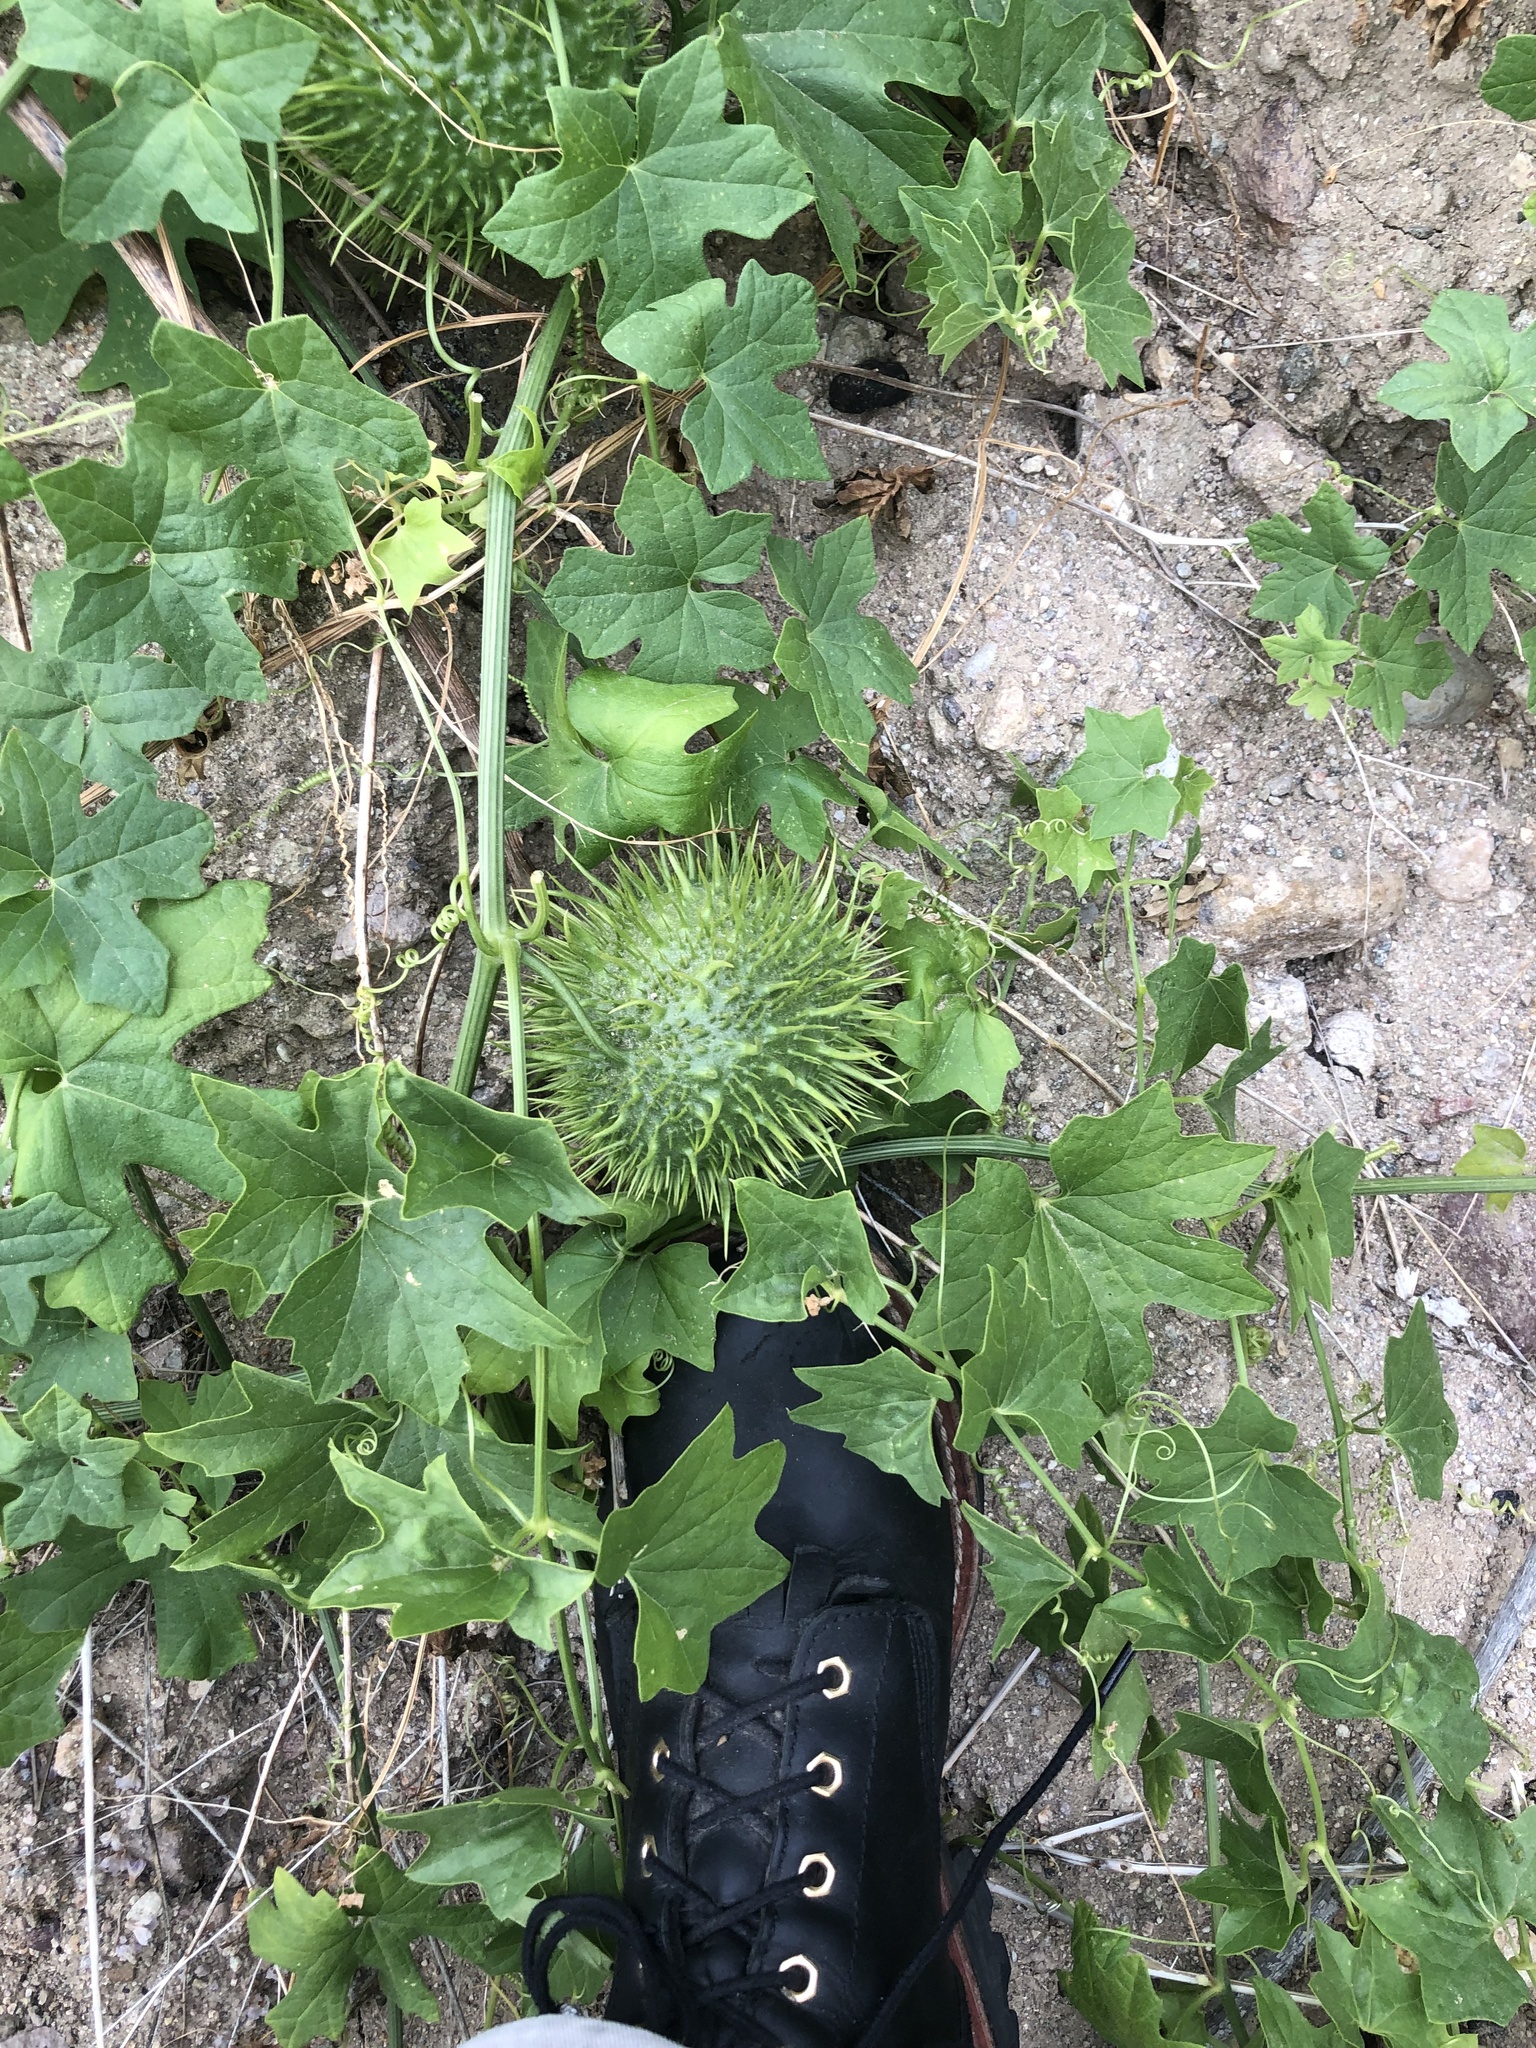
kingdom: Plantae
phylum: Tracheophyta
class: Magnoliopsida
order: Cucurbitales
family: Cucurbitaceae
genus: Marah
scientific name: Marah macrocarpa
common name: Cucamonga manroot
